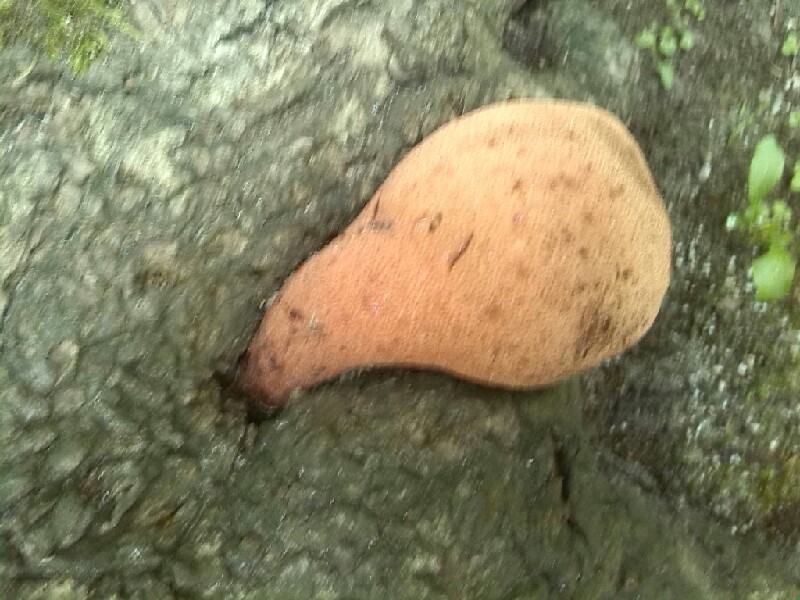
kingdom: Fungi
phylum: Basidiomycota
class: Agaricomycetes
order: Agaricales
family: Fistulinaceae
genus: Fistulina
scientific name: Fistulina hepatica
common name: Beef-steak fungus
